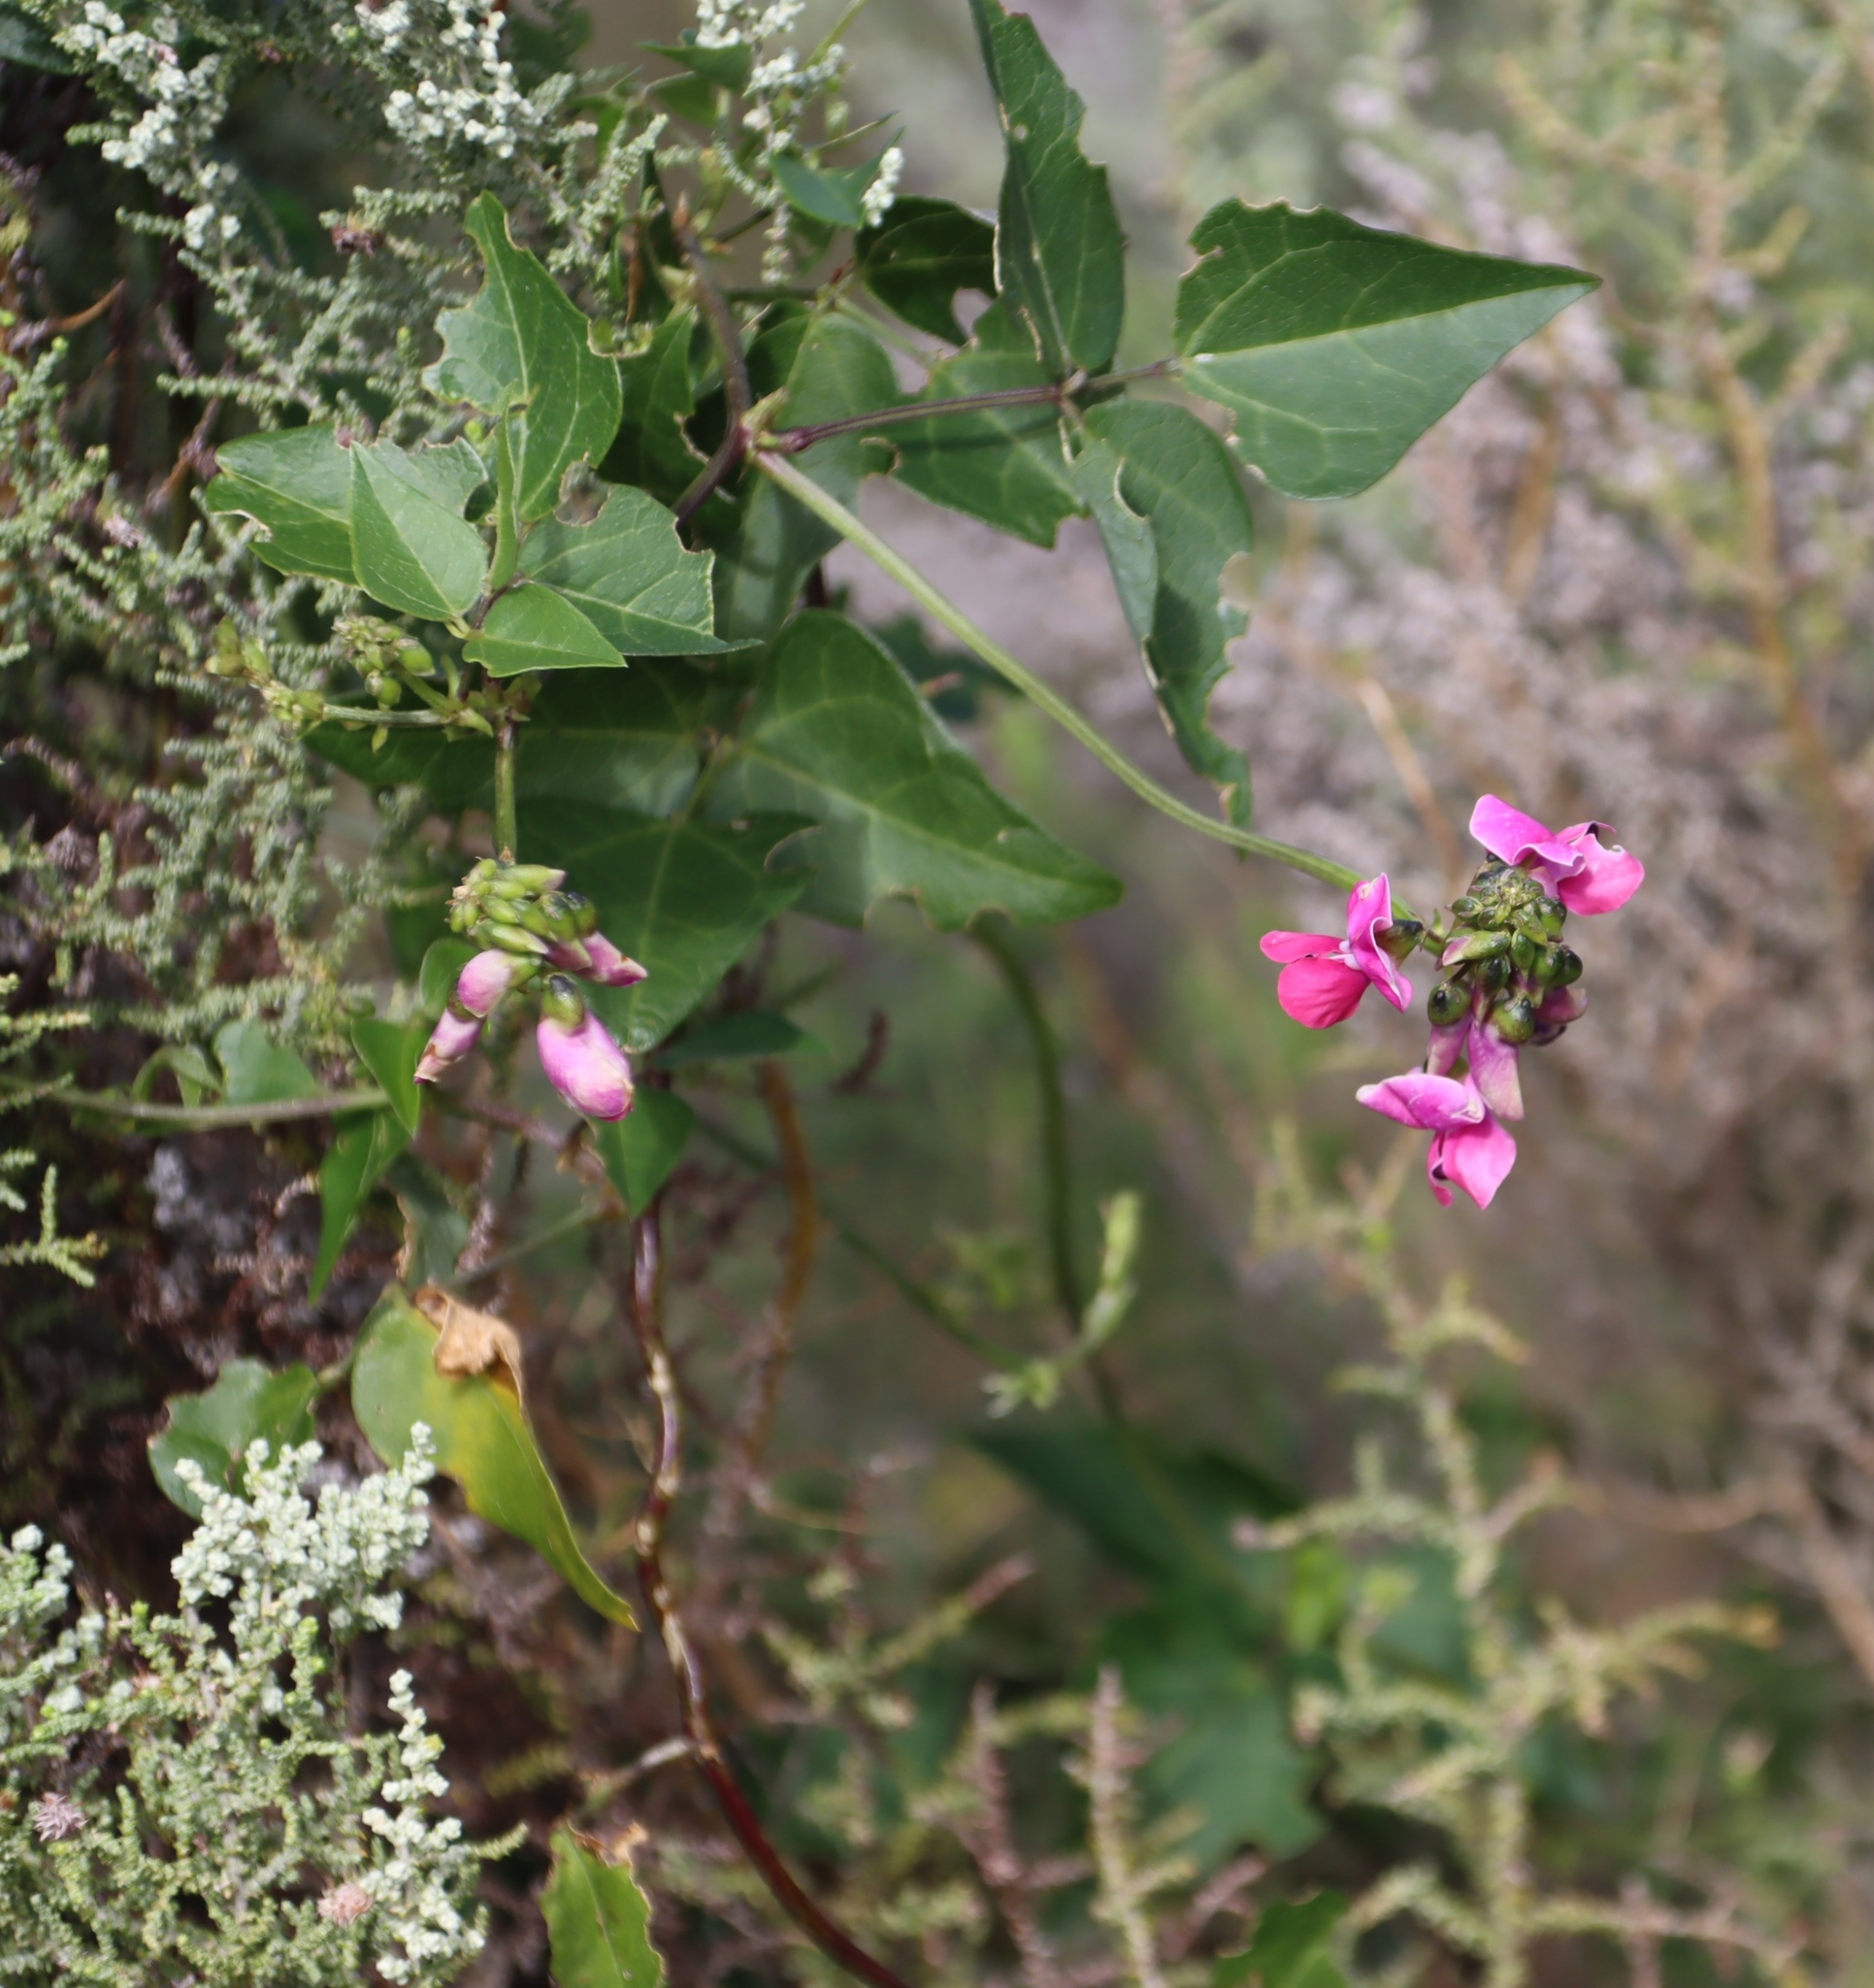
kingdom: Plantae
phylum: Tracheophyta
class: Magnoliopsida
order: Fabales
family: Fabaceae
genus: Dipogon
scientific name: Dipogon lignosus
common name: Okie bean
